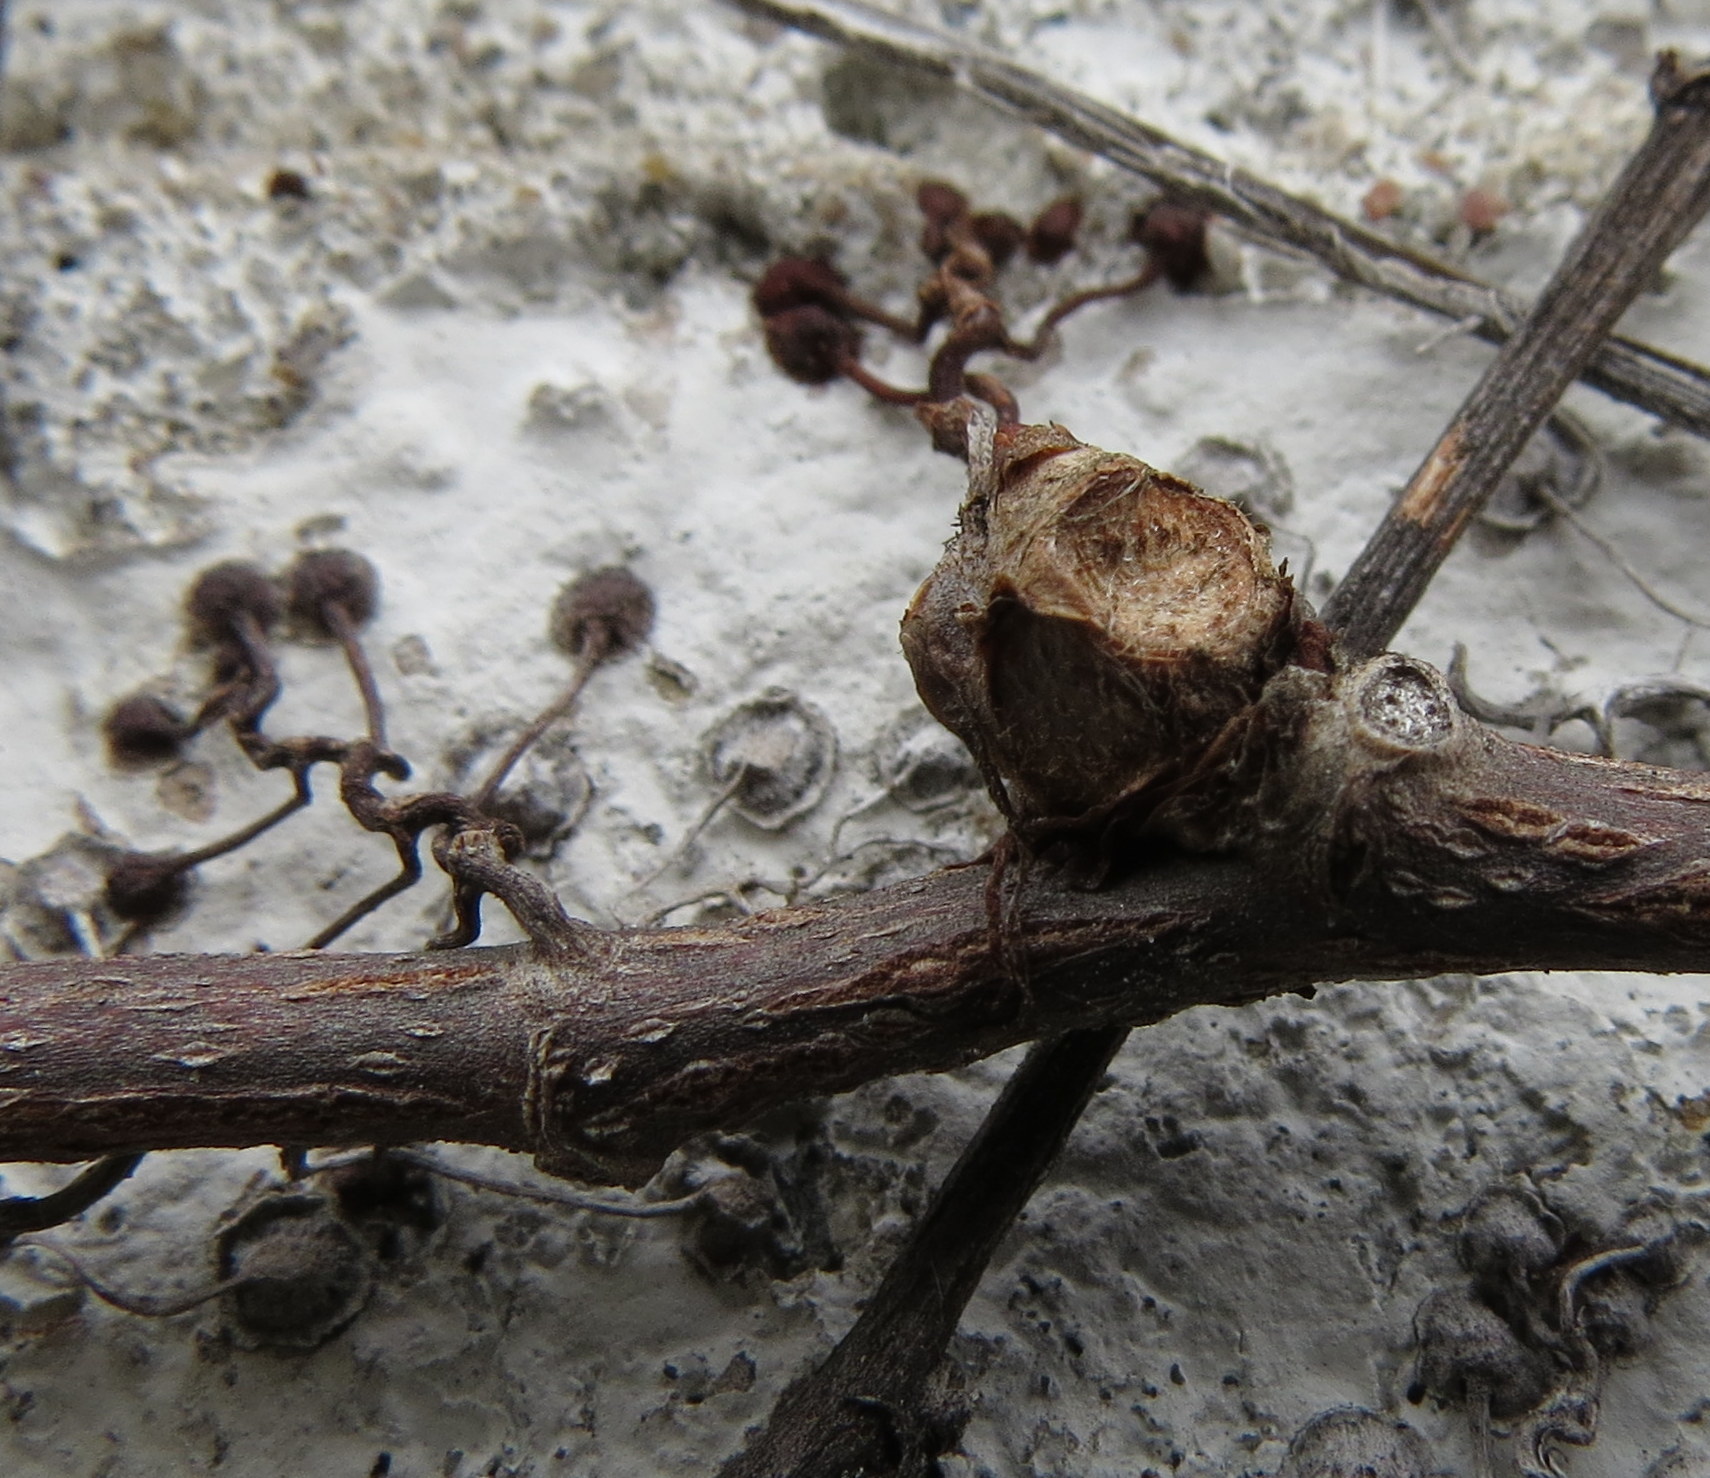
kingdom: Plantae
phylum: Tracheophyta
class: Magnoliopsida
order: Vitales
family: Vitaceae
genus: Parthenocissus
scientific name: Parthenocissus tricuspidata
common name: Boston ivy
